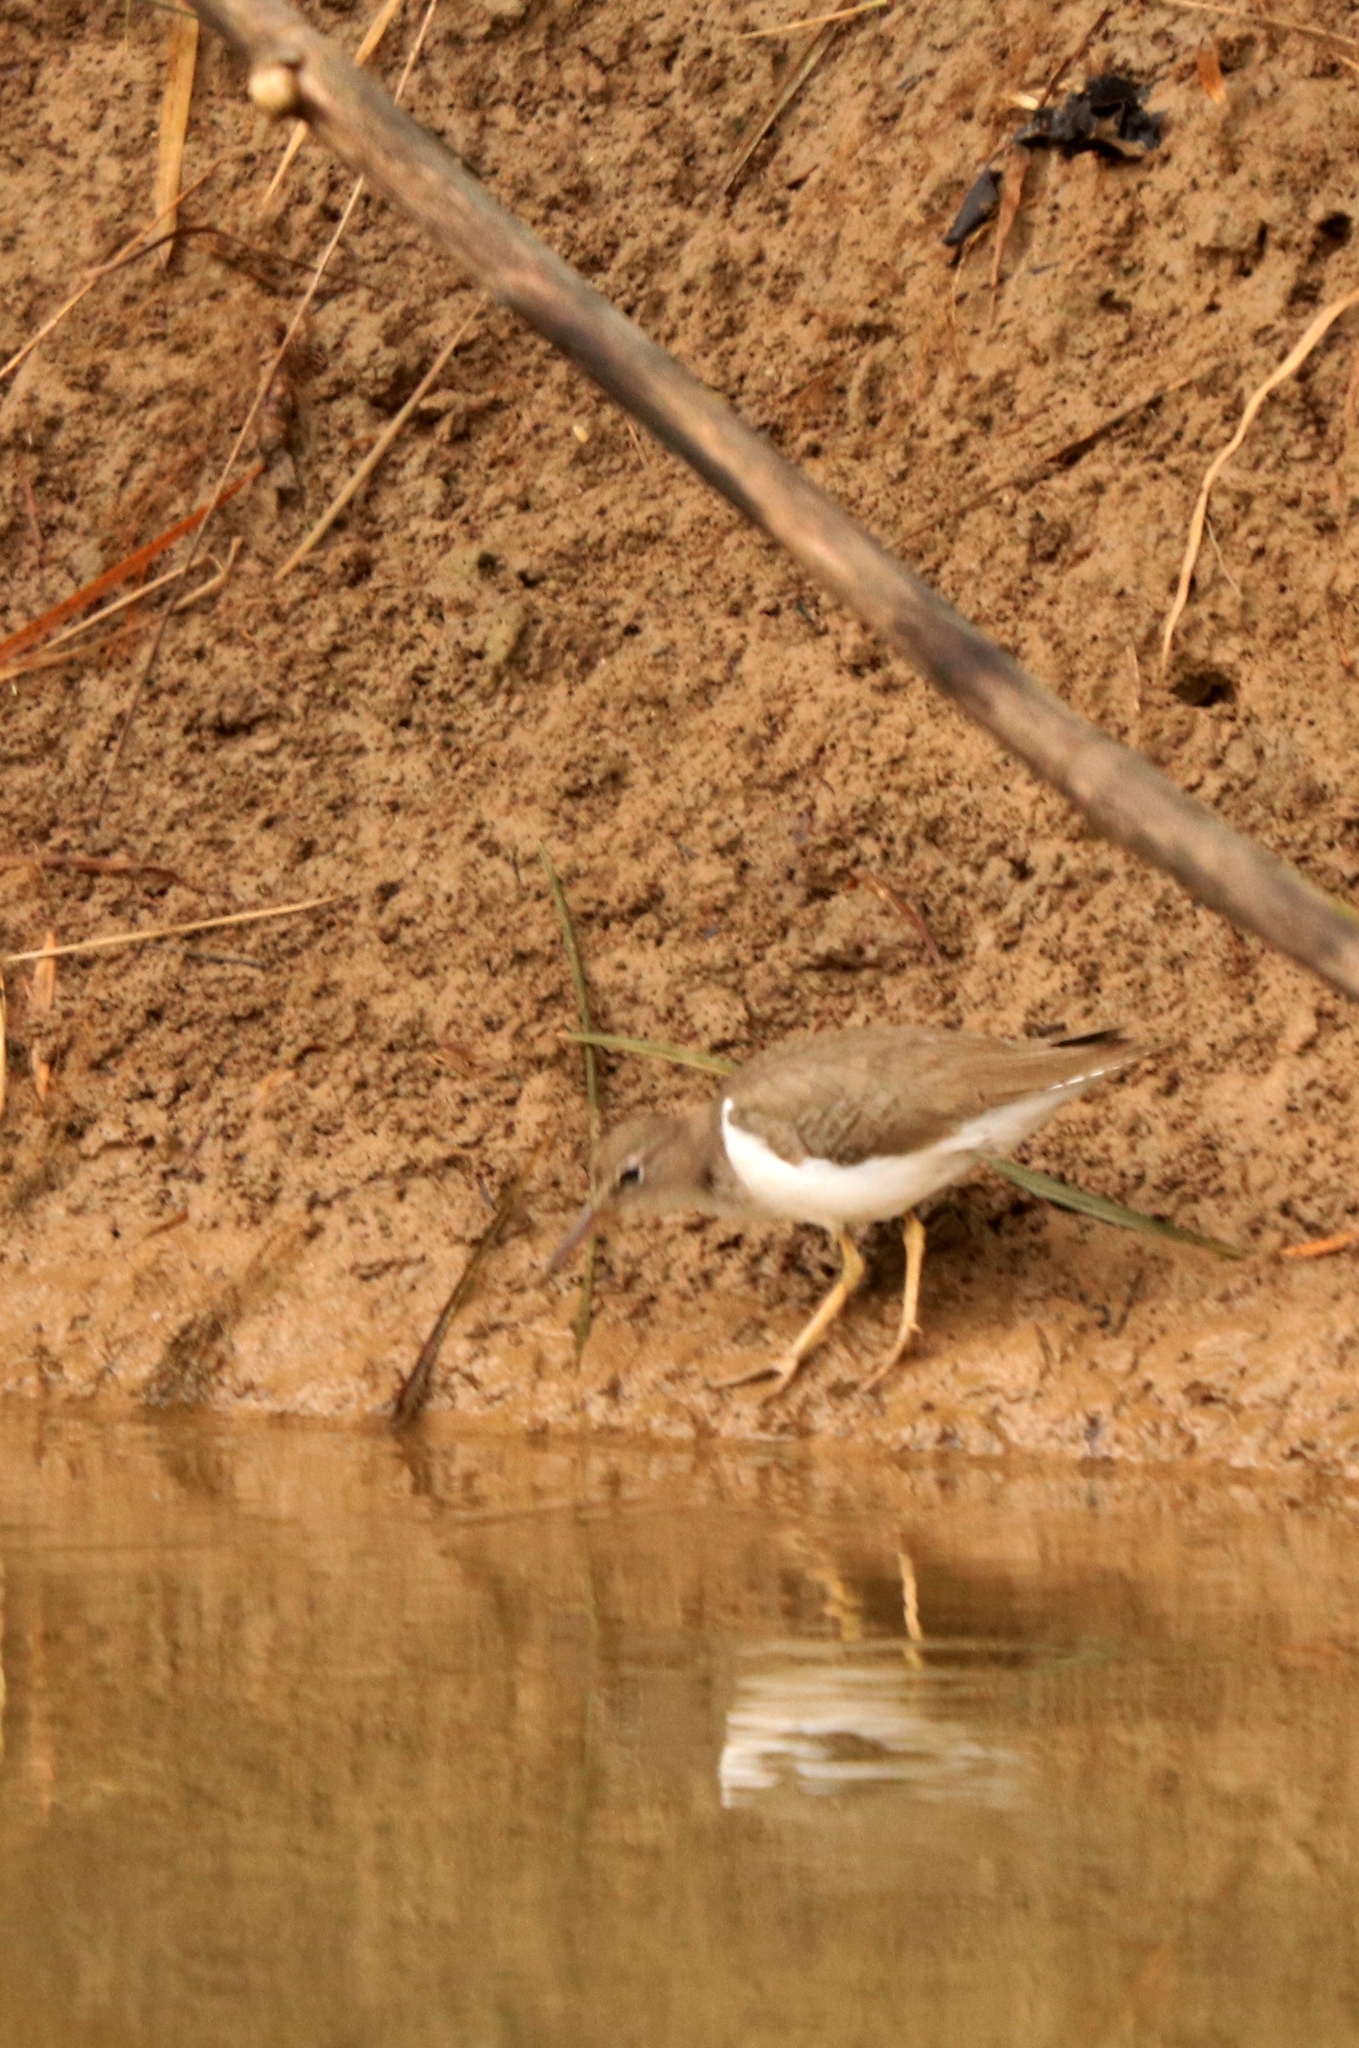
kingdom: Animalia
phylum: Chordata
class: Aves
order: Charadriiformes
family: Scolopacidae
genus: Actitis
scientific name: Actitis macularius
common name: Spotted sandpiper
